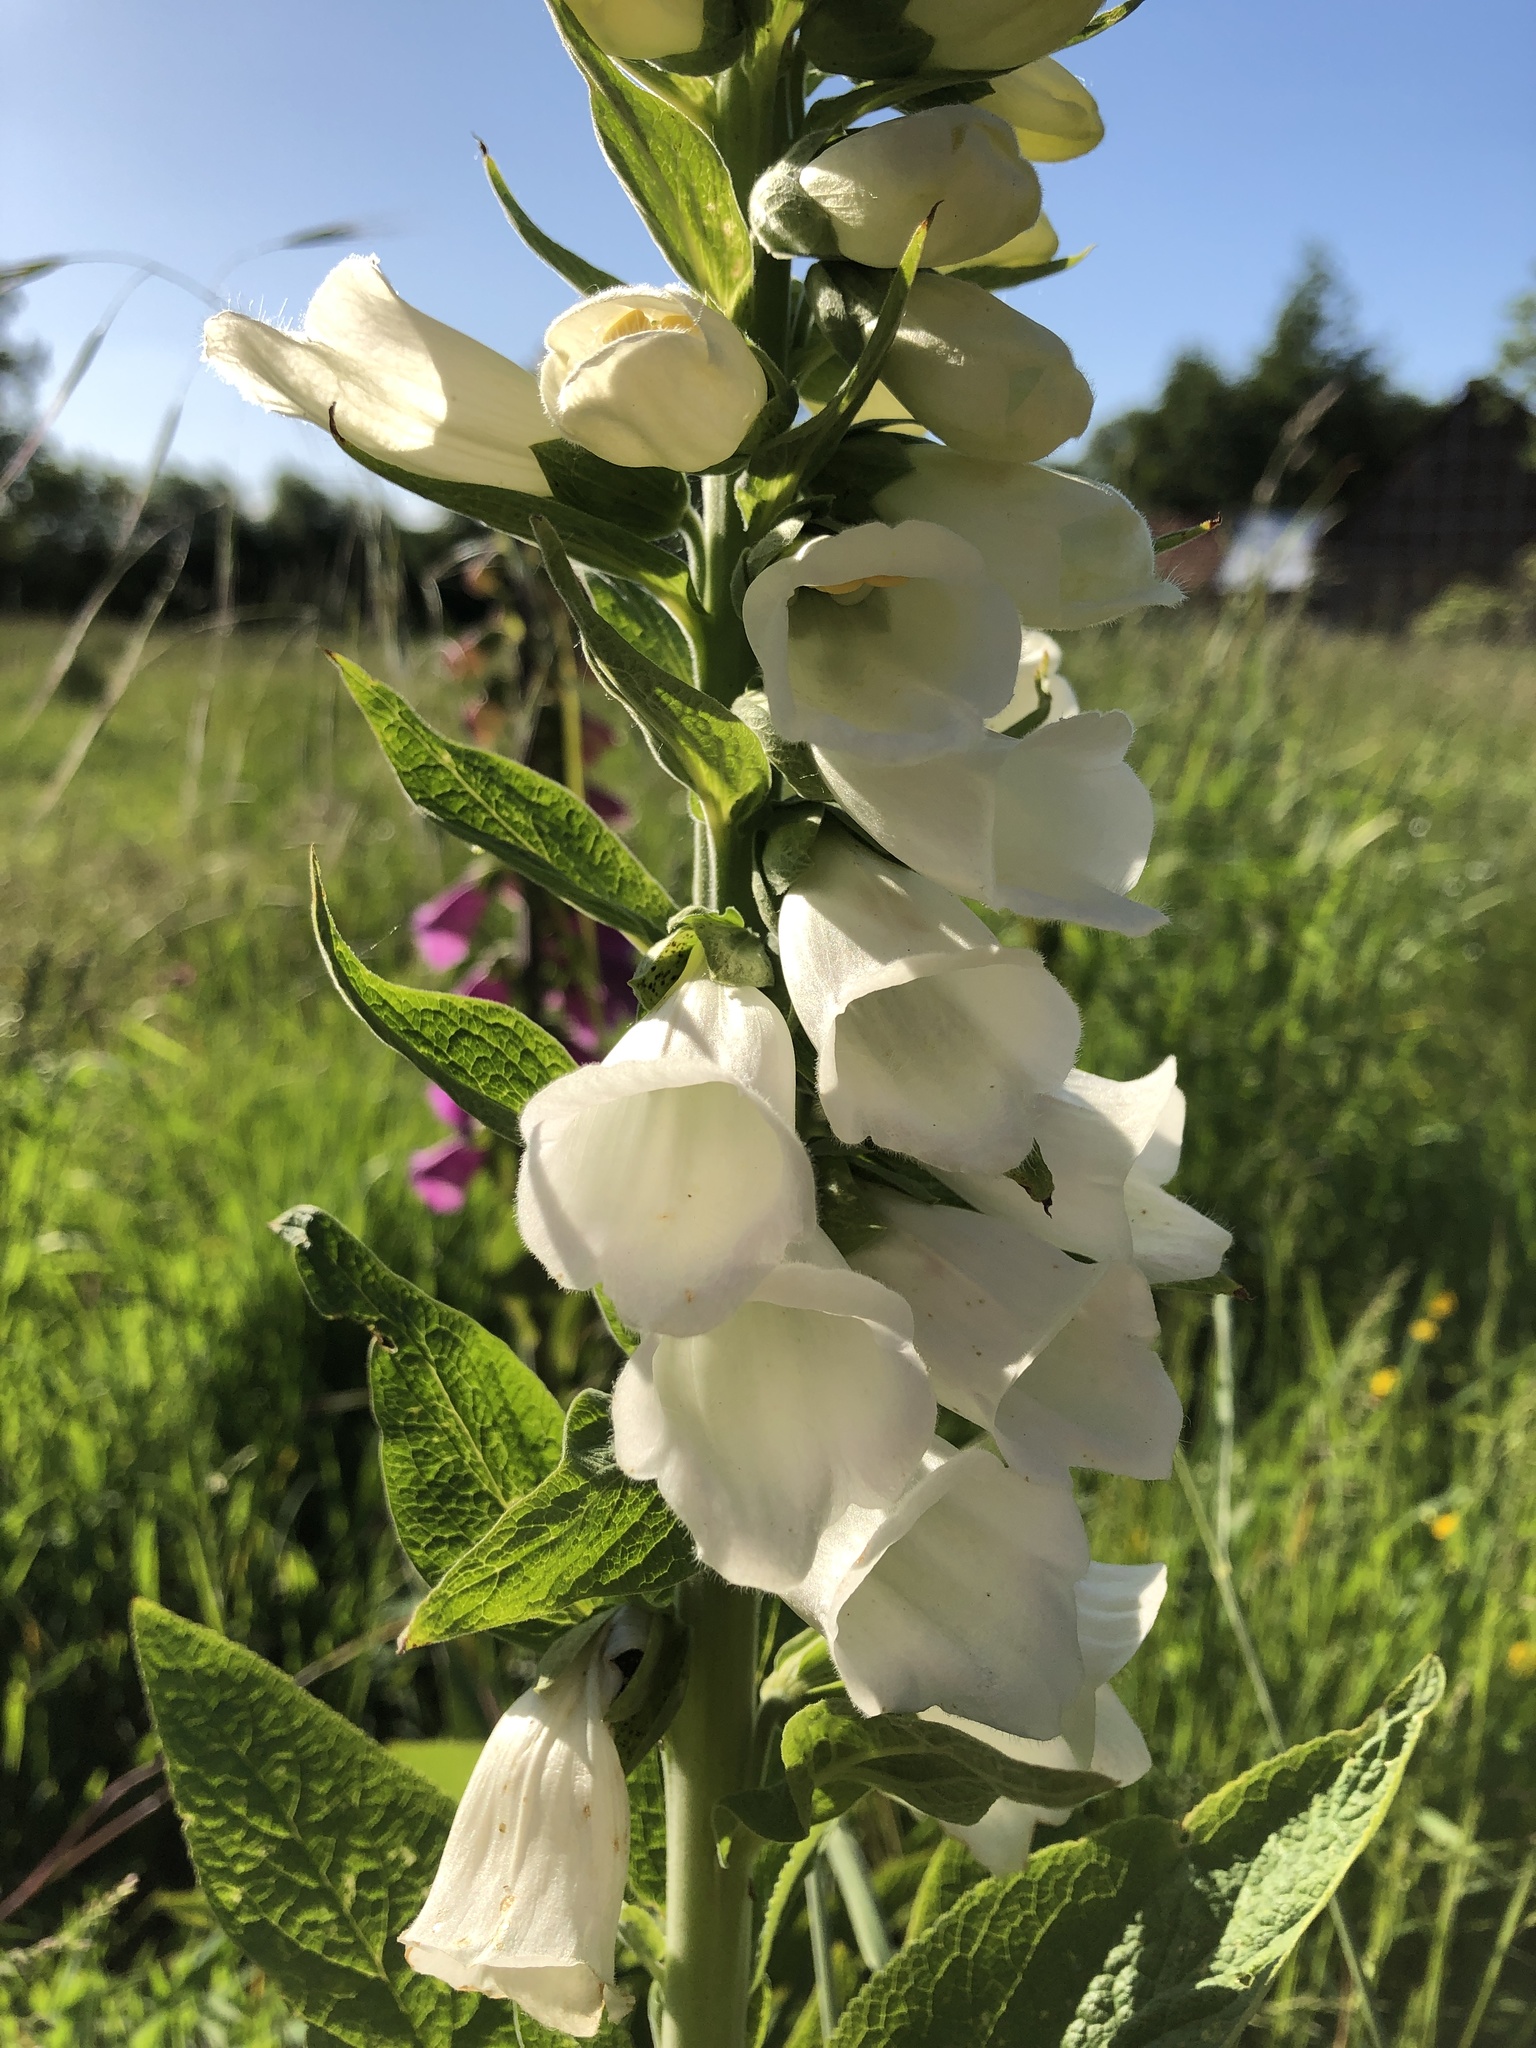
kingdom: Plantae
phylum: Tracheophyta
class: Magnoliopsida
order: Lamiales
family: Plantaginaceae
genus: Digitalis
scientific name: Digitalis purpurea
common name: Foxglove
